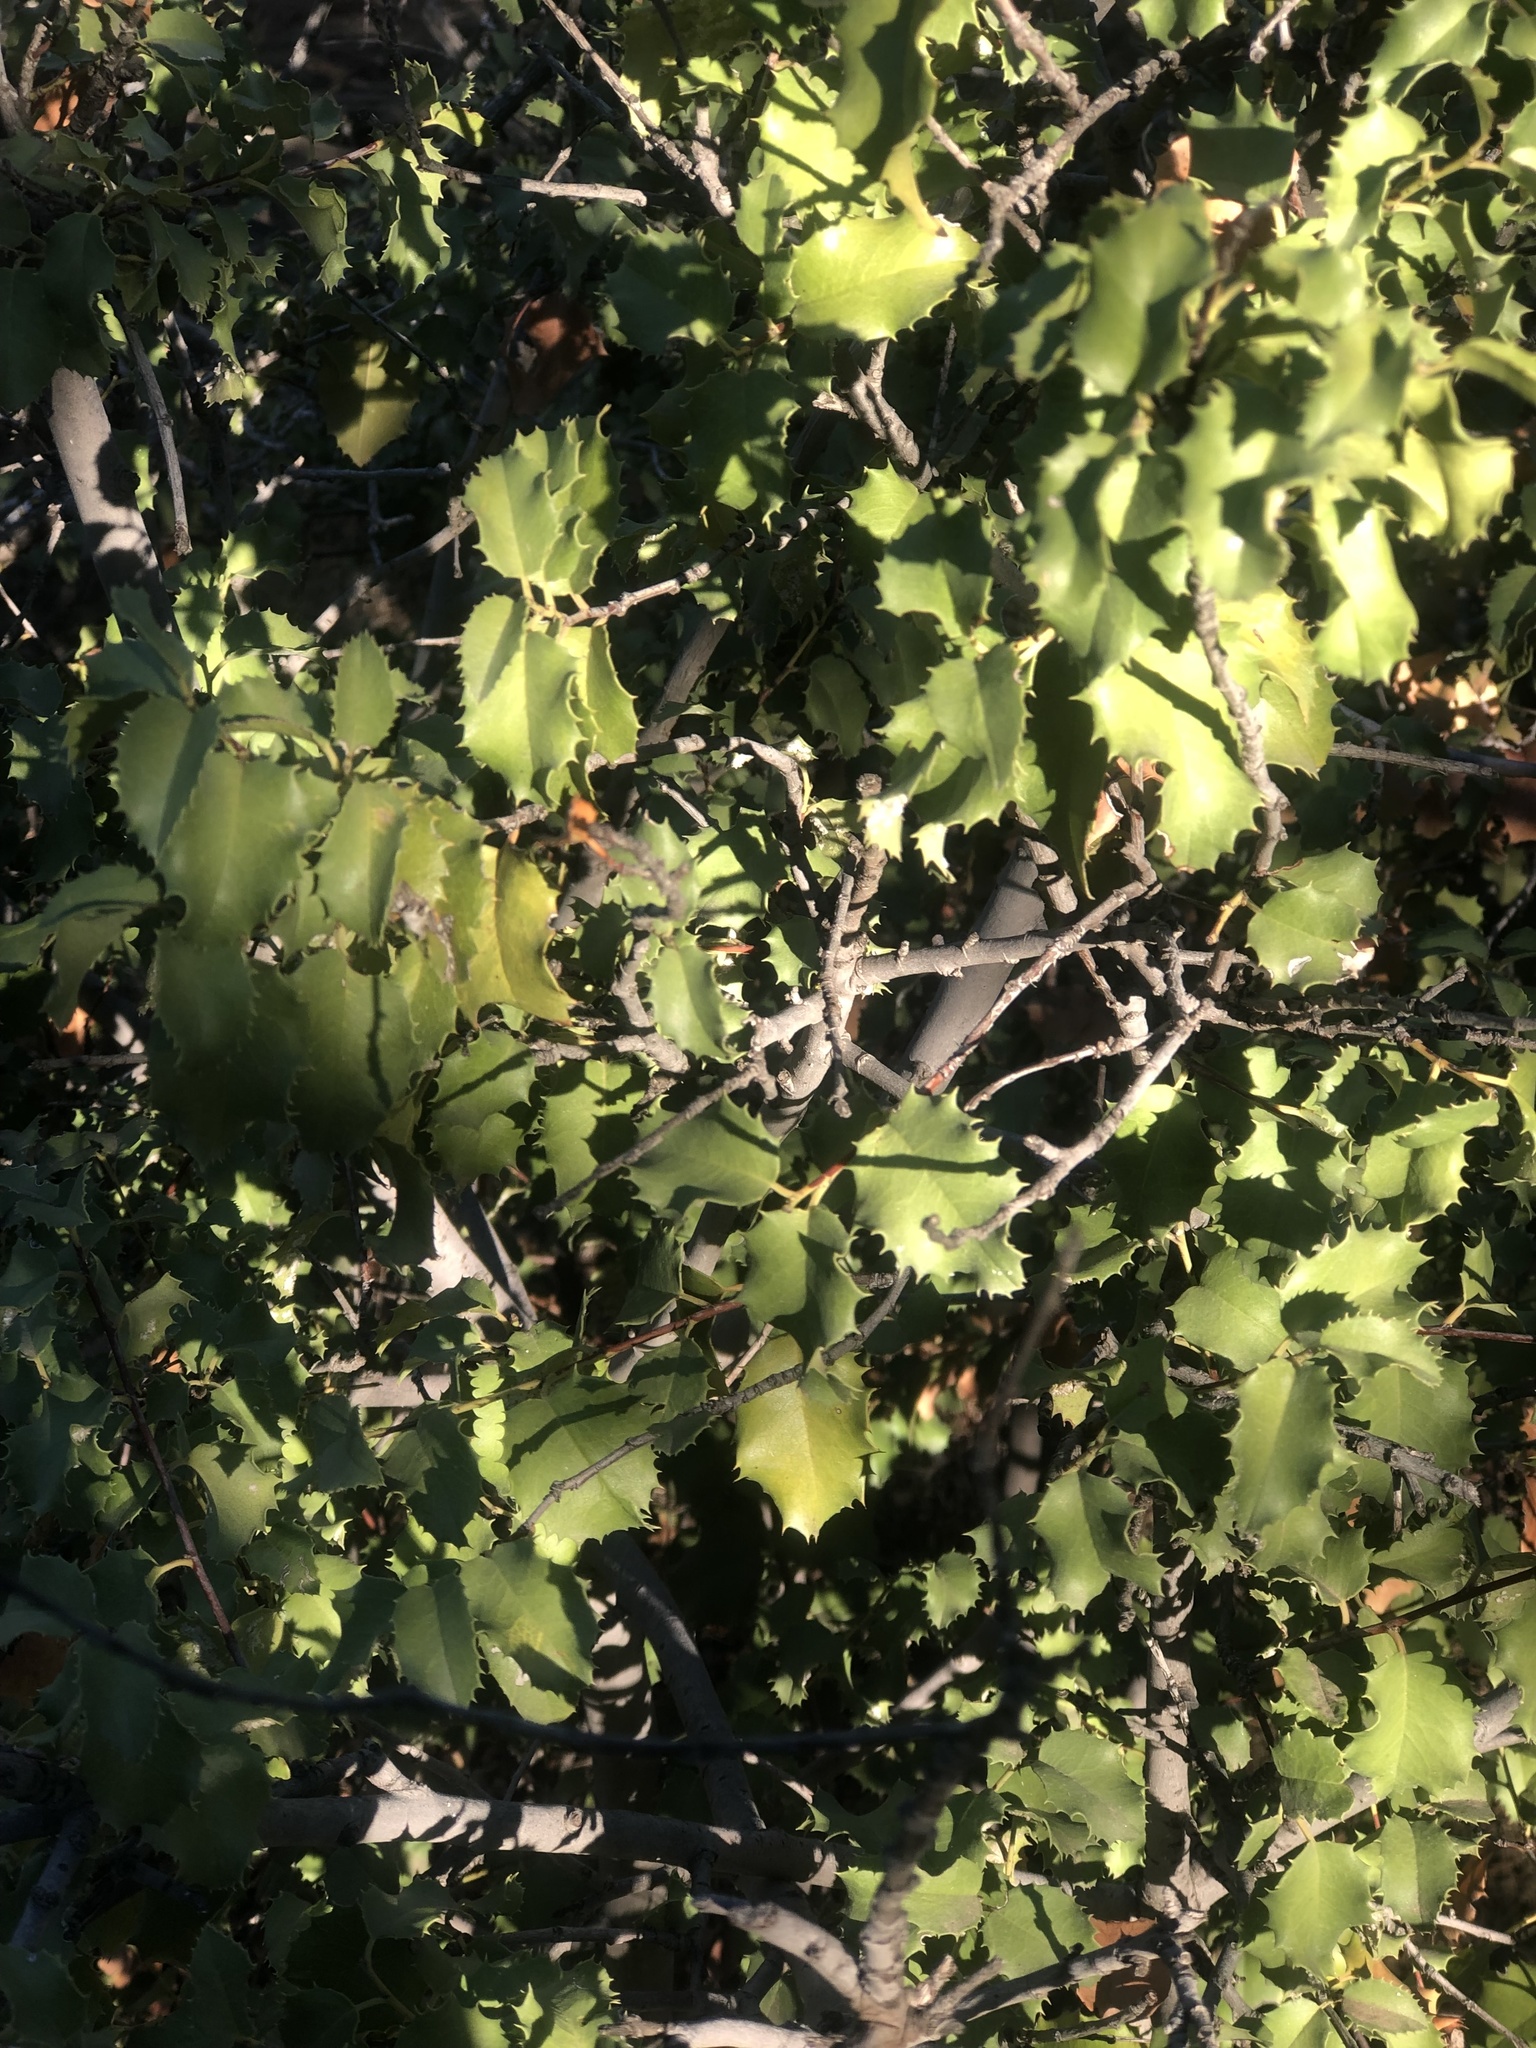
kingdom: Plantae
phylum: Tracheophyta
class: Magnoliopsida
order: Rosales
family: Rosaceae
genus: Prunus
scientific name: Prunus ilicifolia
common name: Hollyleaf cherry
